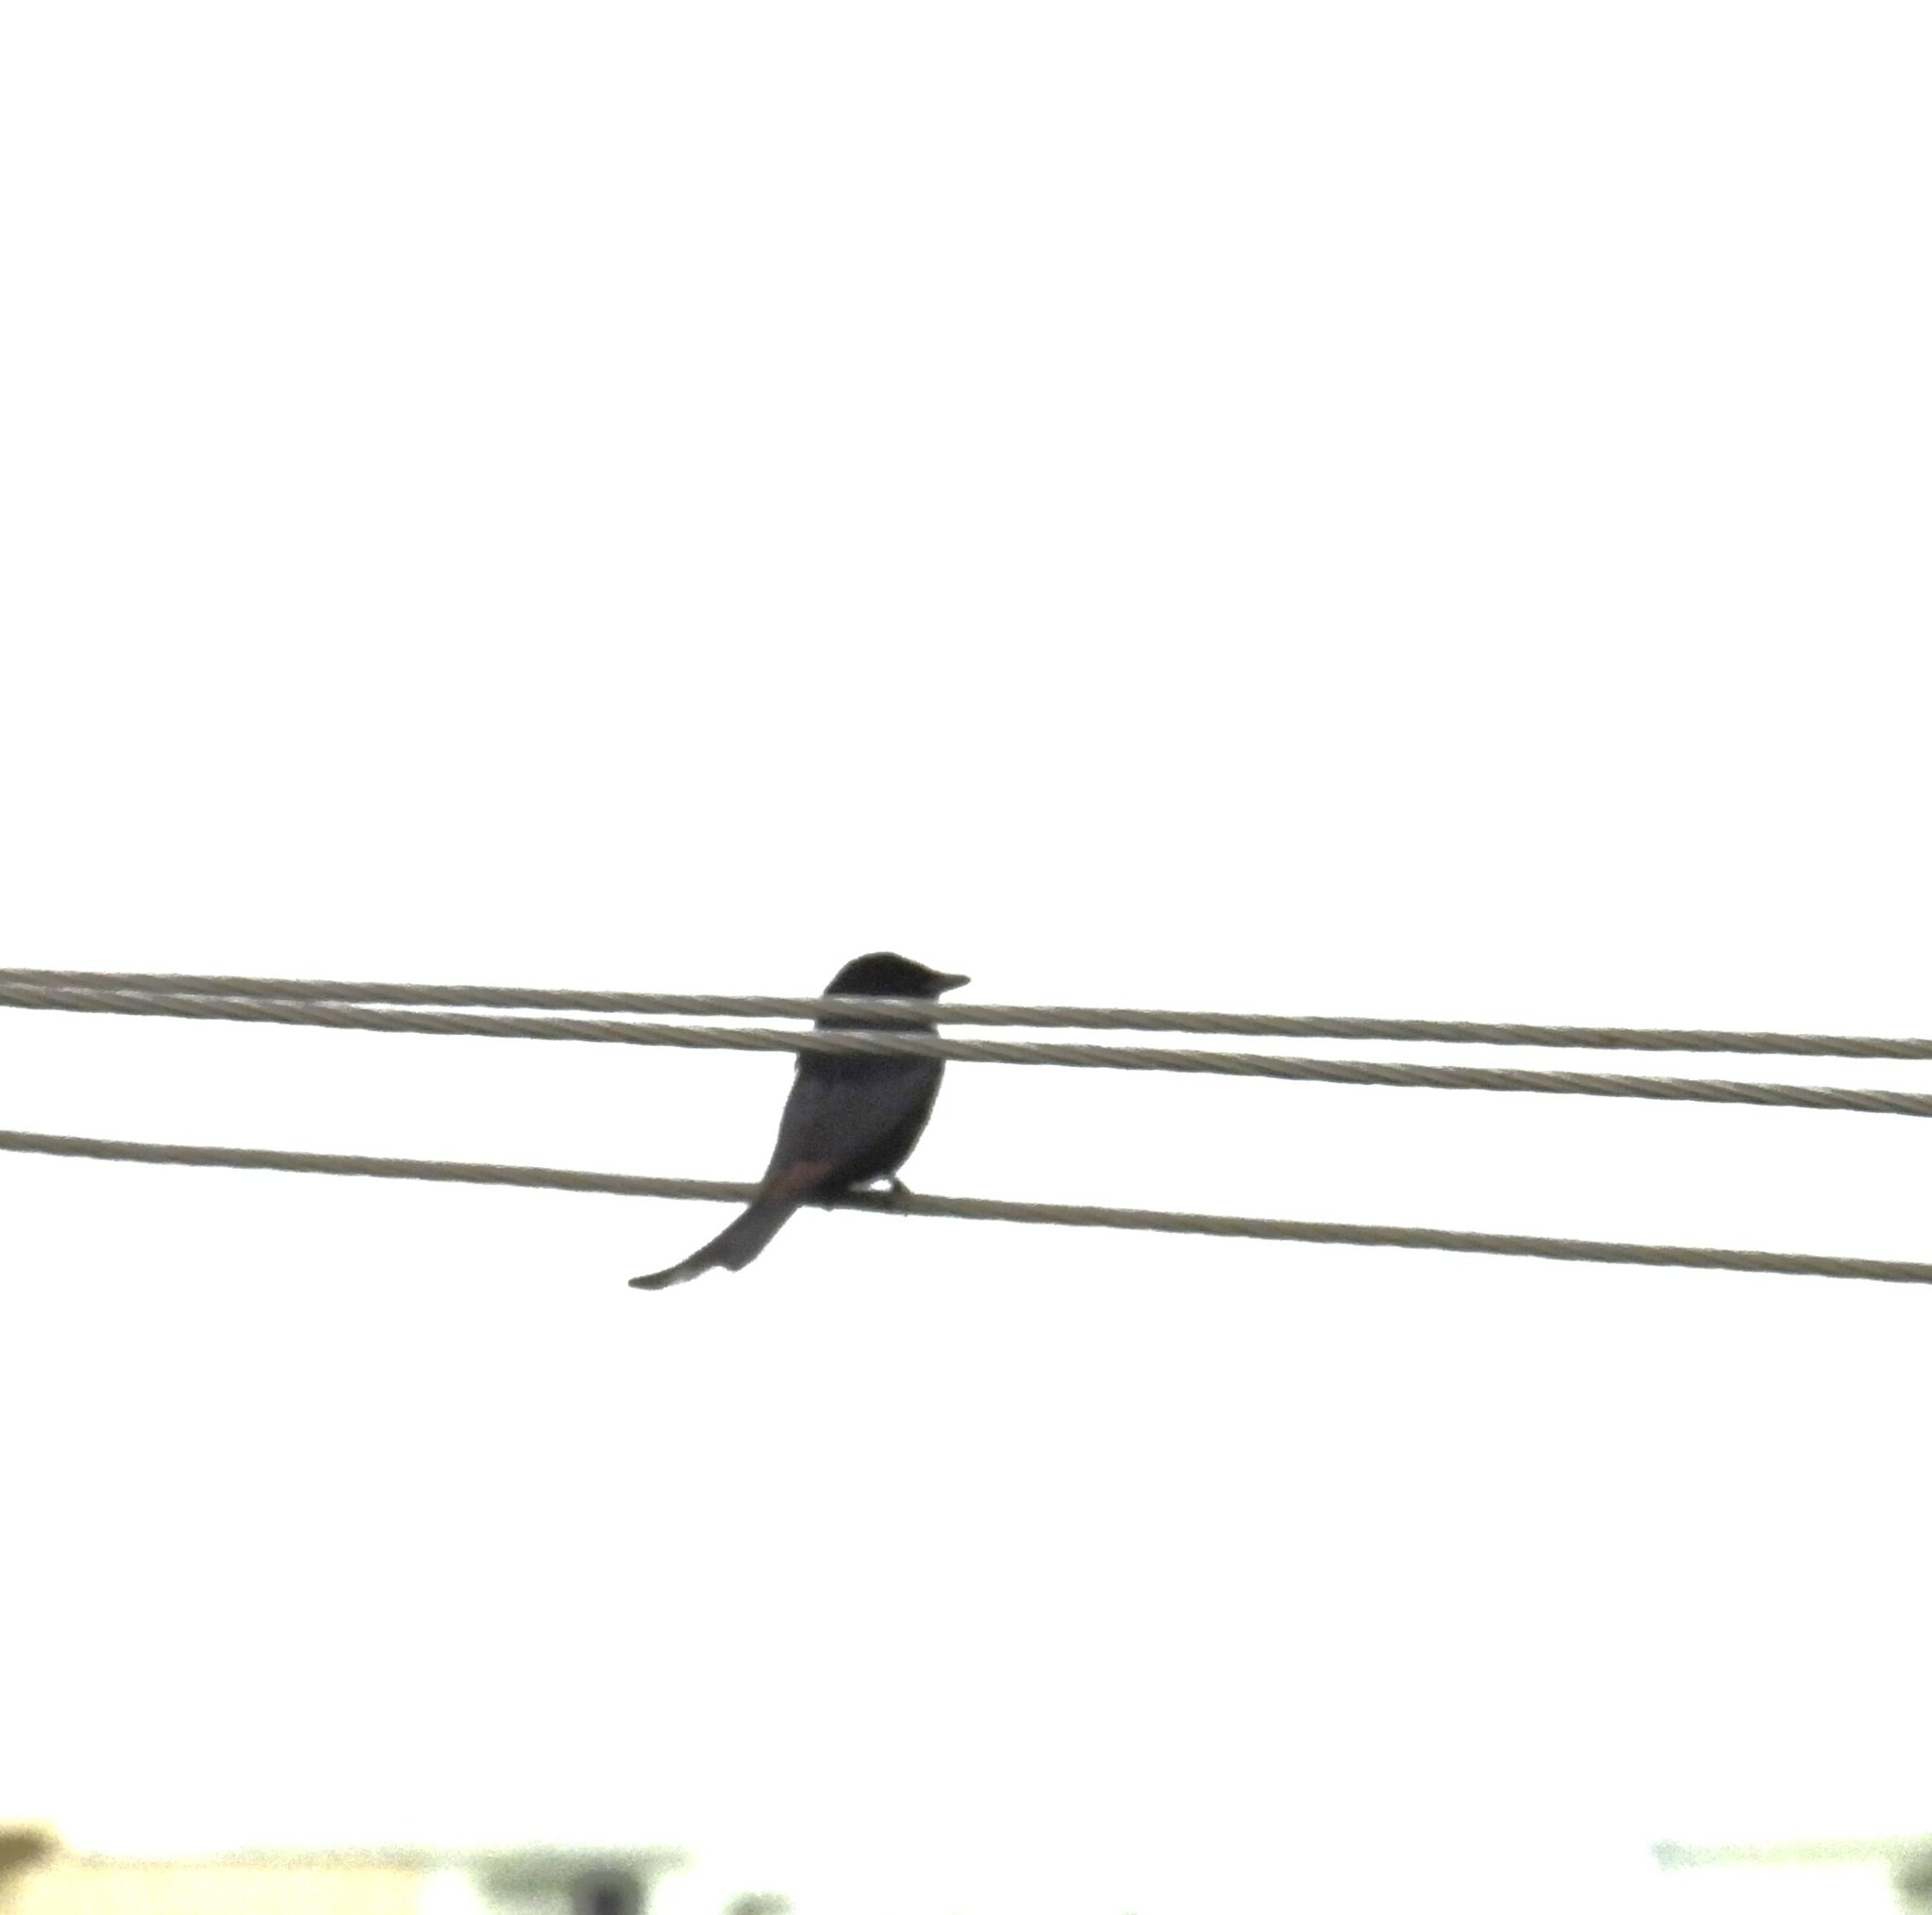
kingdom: Animalia
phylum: Chordata
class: Aves
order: Passeriformes
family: Dicruridae
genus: Dicrurus
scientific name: Dicrurus macrocercus
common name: Black drongo
